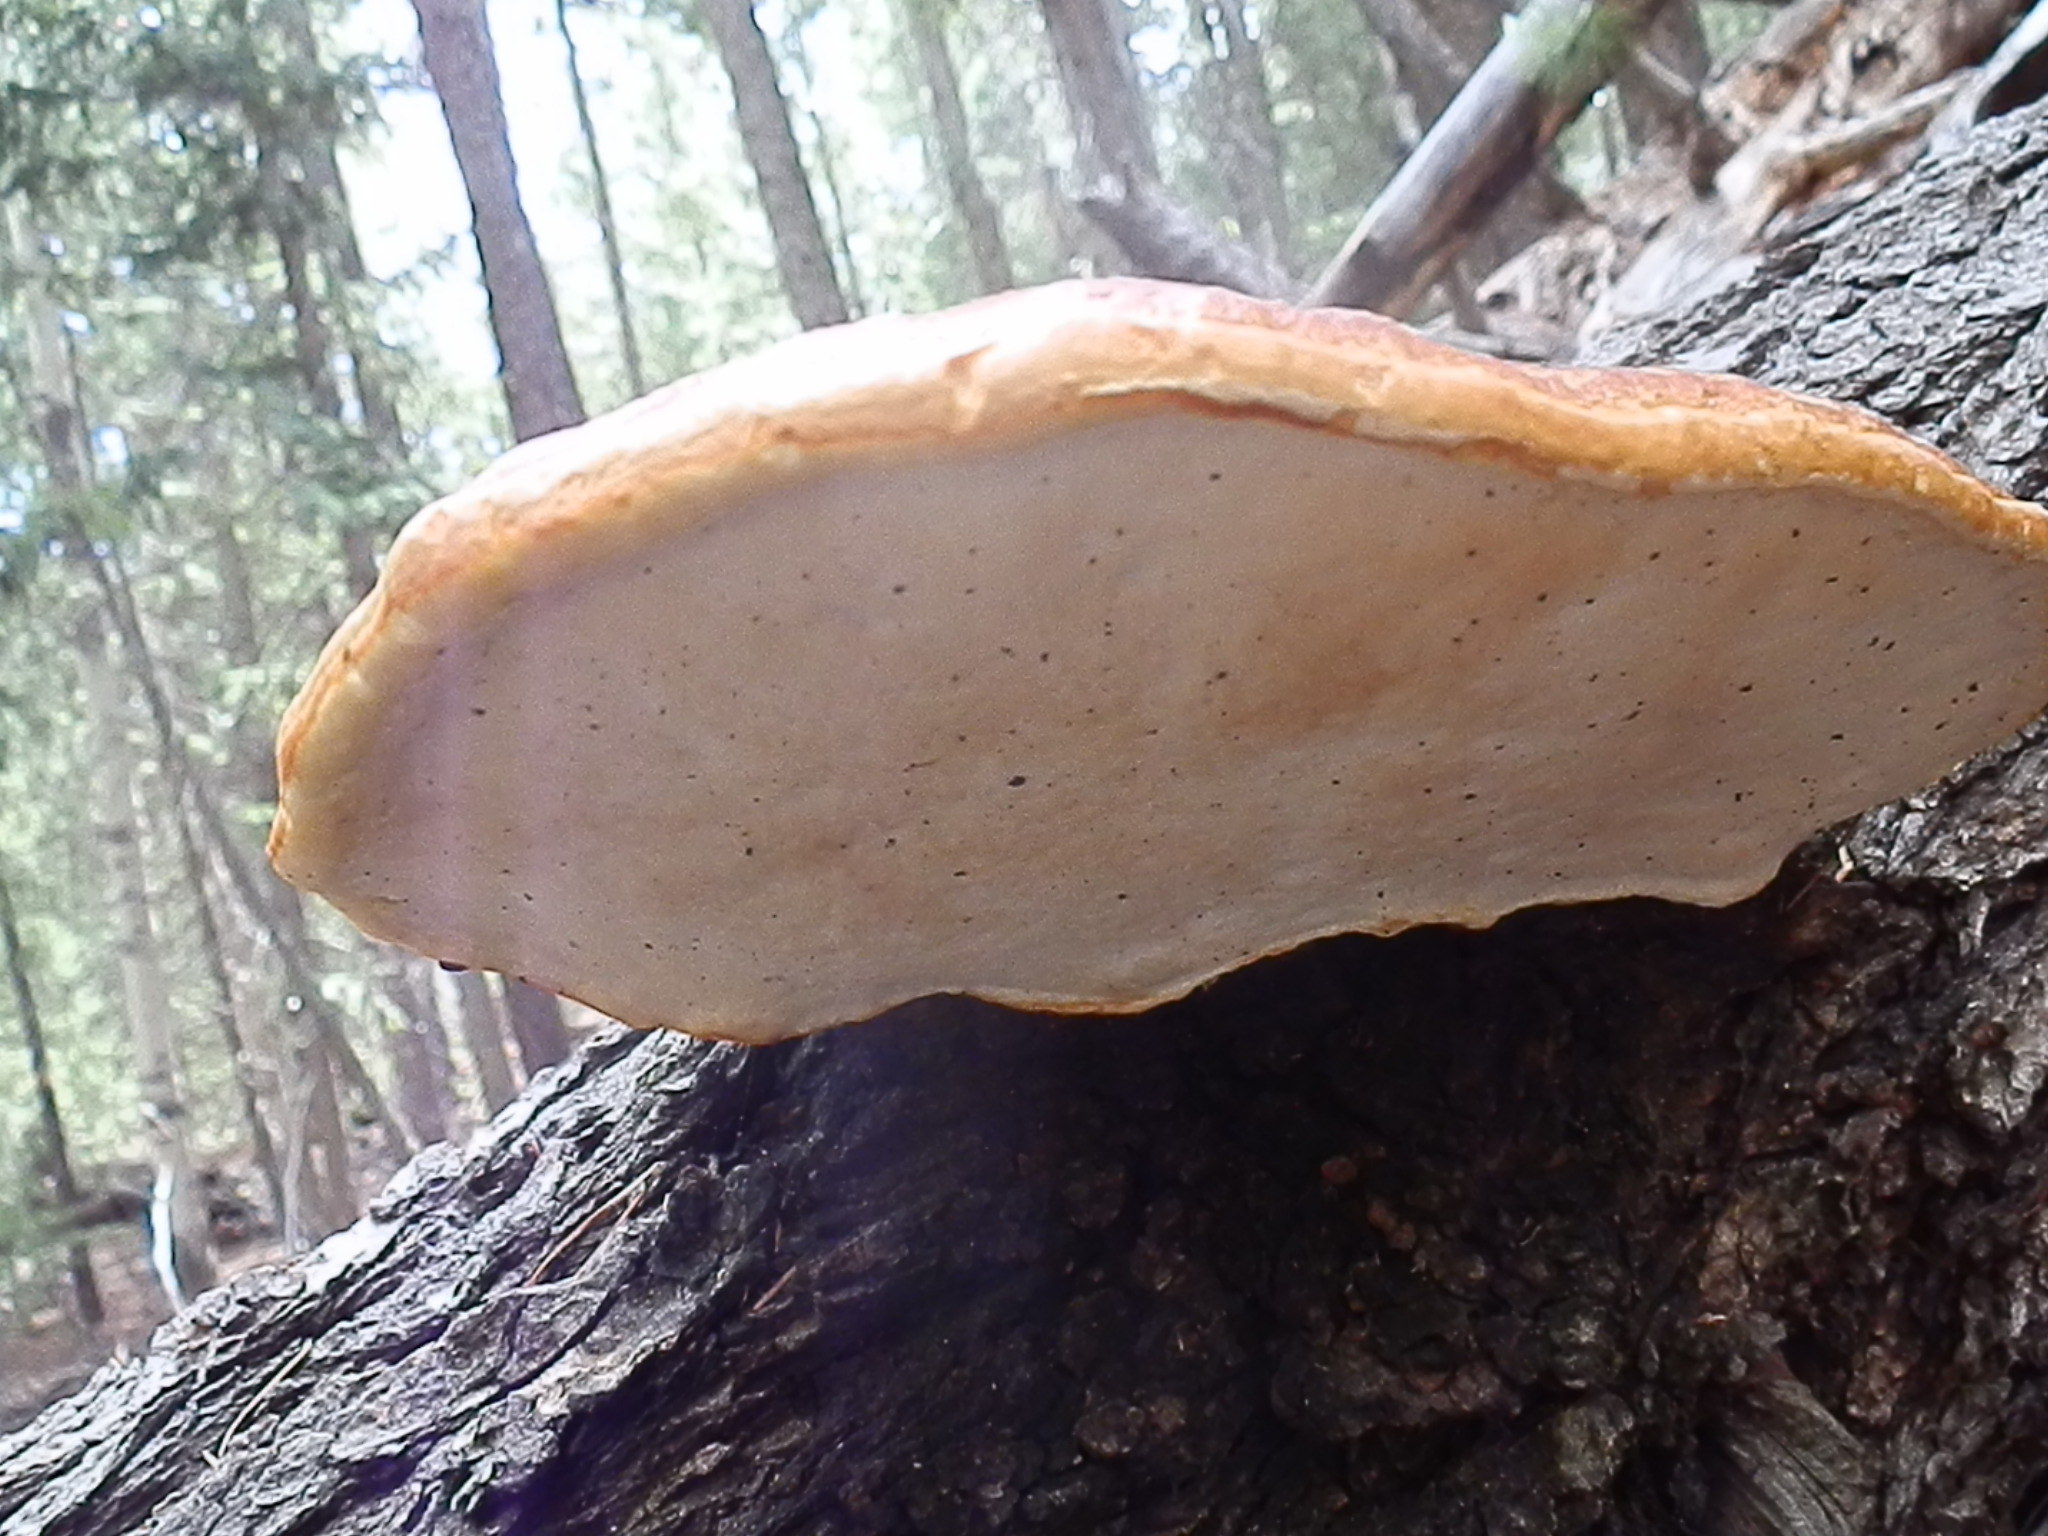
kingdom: Fungi
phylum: Basidiomycota
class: Agaricomycetes
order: Polyporales
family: Fomitopsidaceae
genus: Fomitopsis
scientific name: Fomitopsis schrenkii
